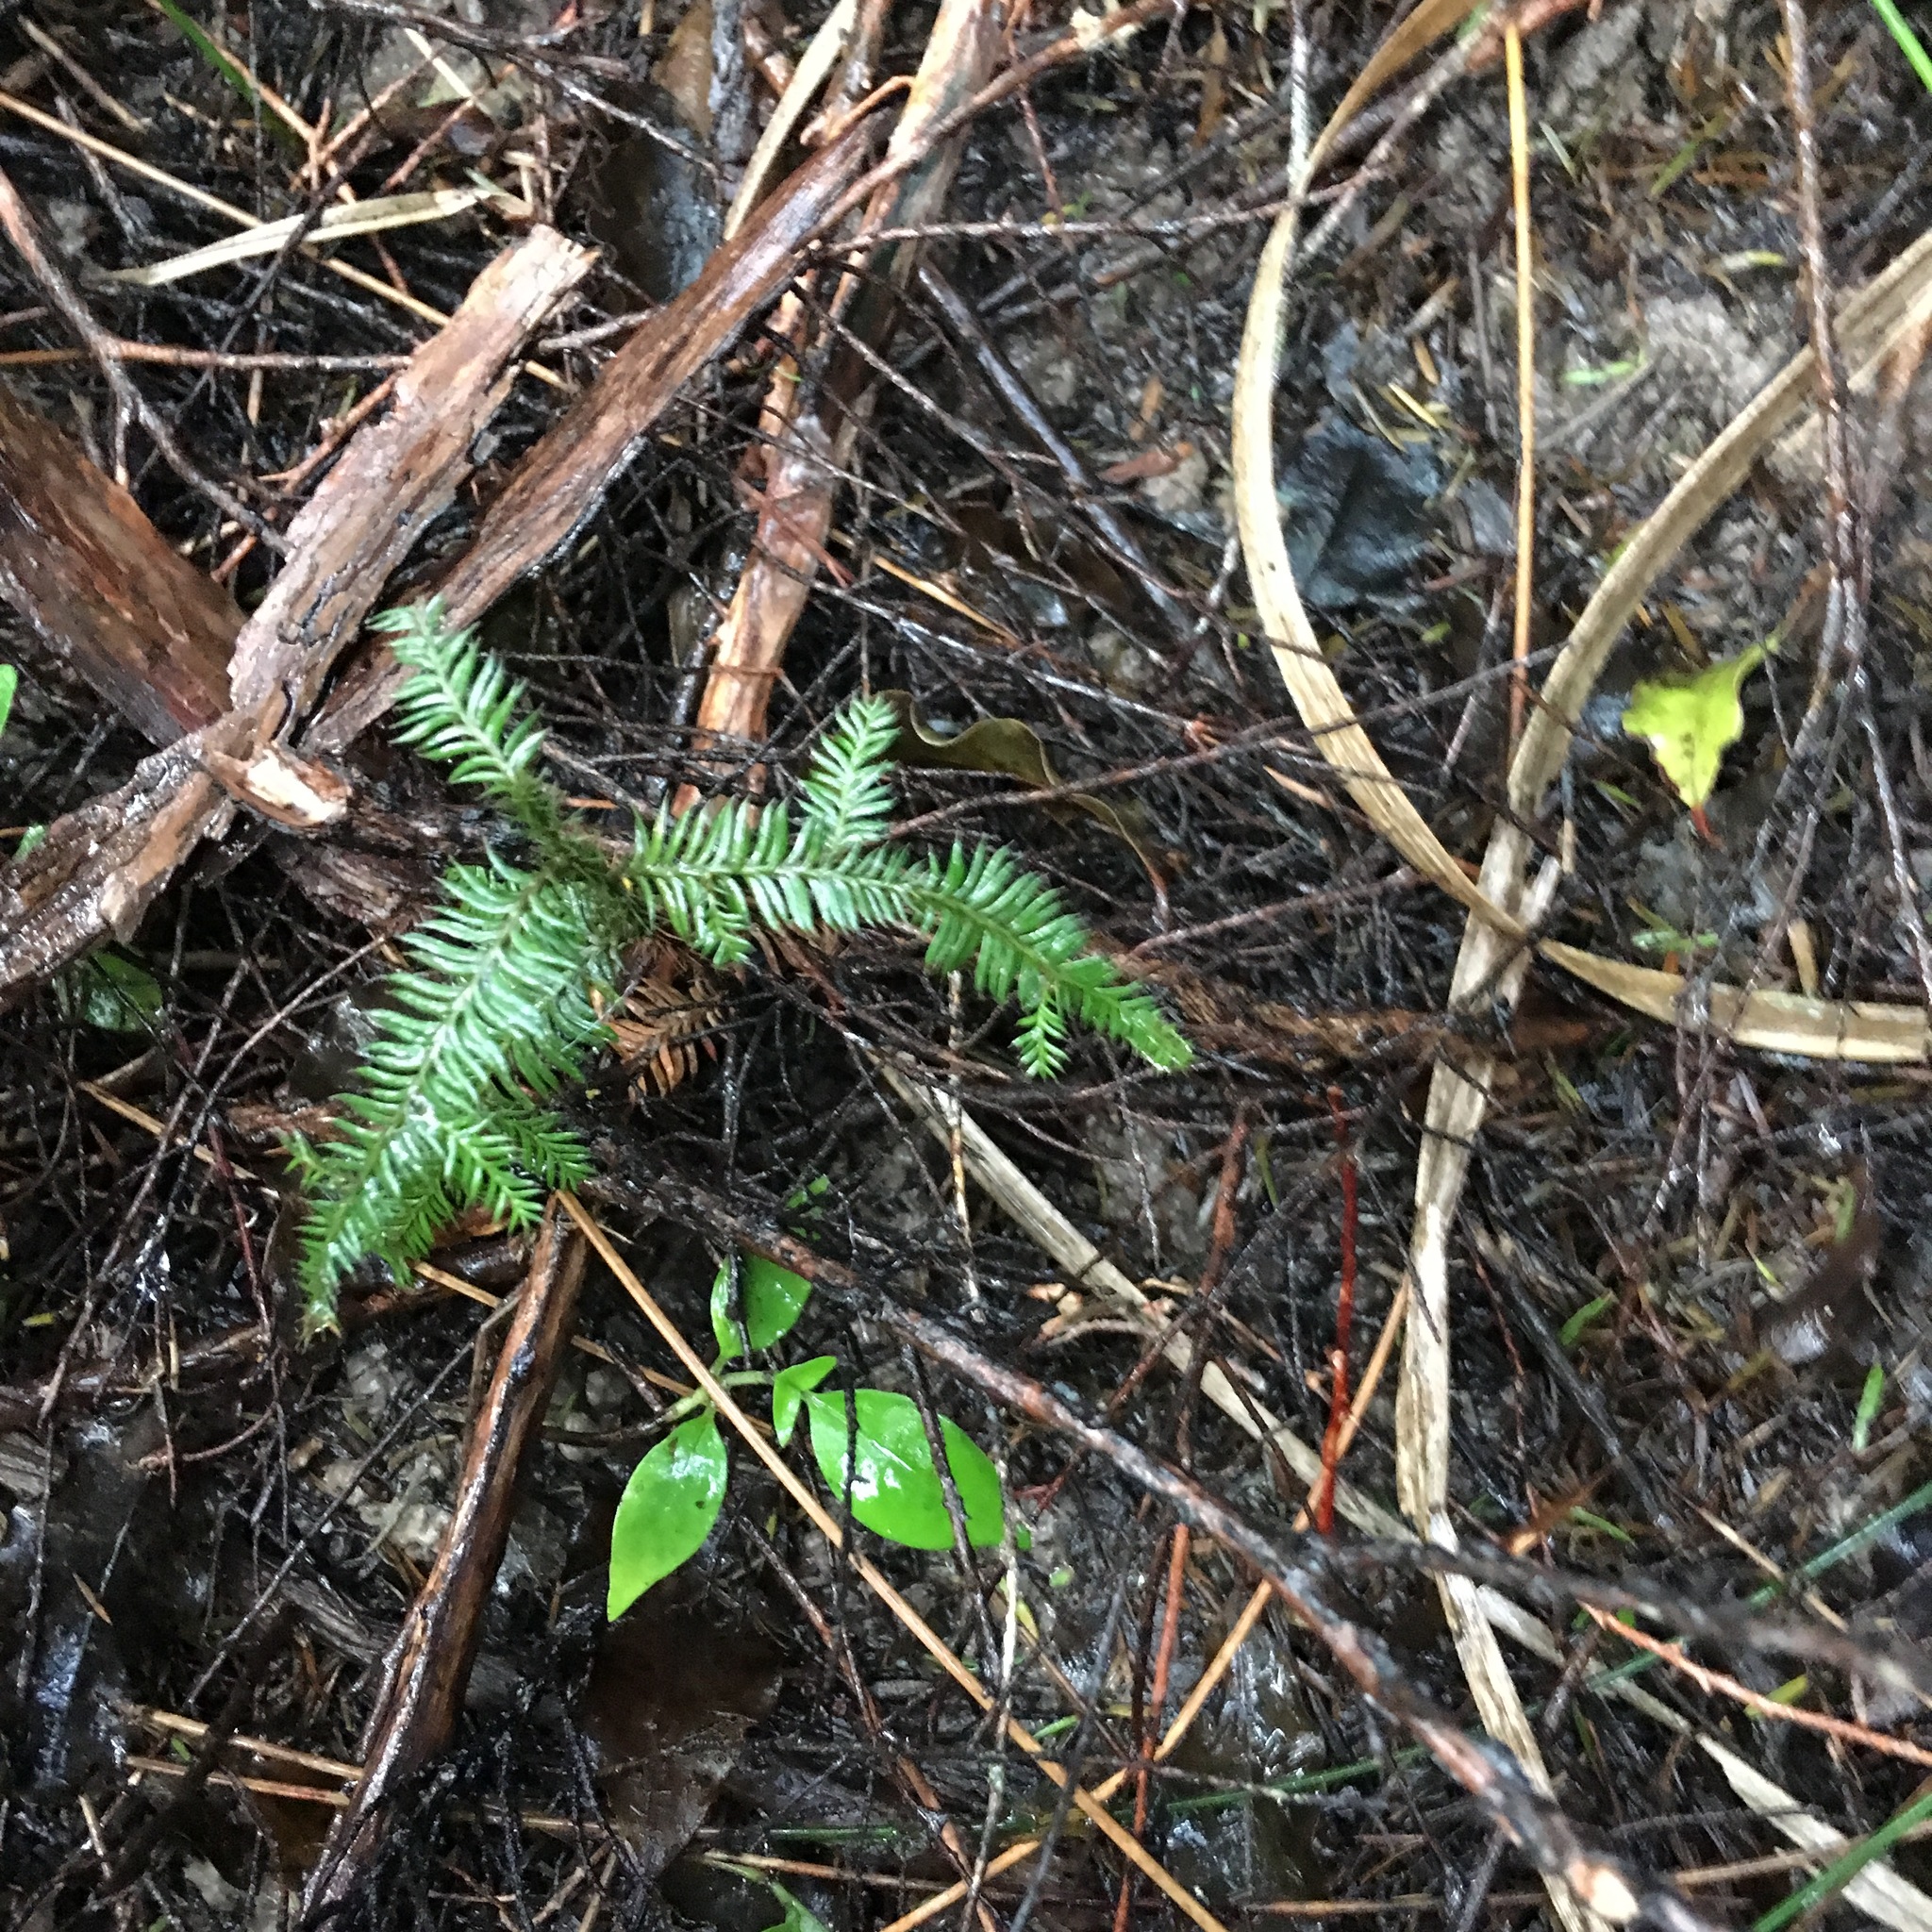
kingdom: Plantae
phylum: Tracheophyta
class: Pinopsida
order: Pinales
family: Podocarpaceae
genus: Dacrycarpus
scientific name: Dacrycarpus dacrydioides
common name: White pine
